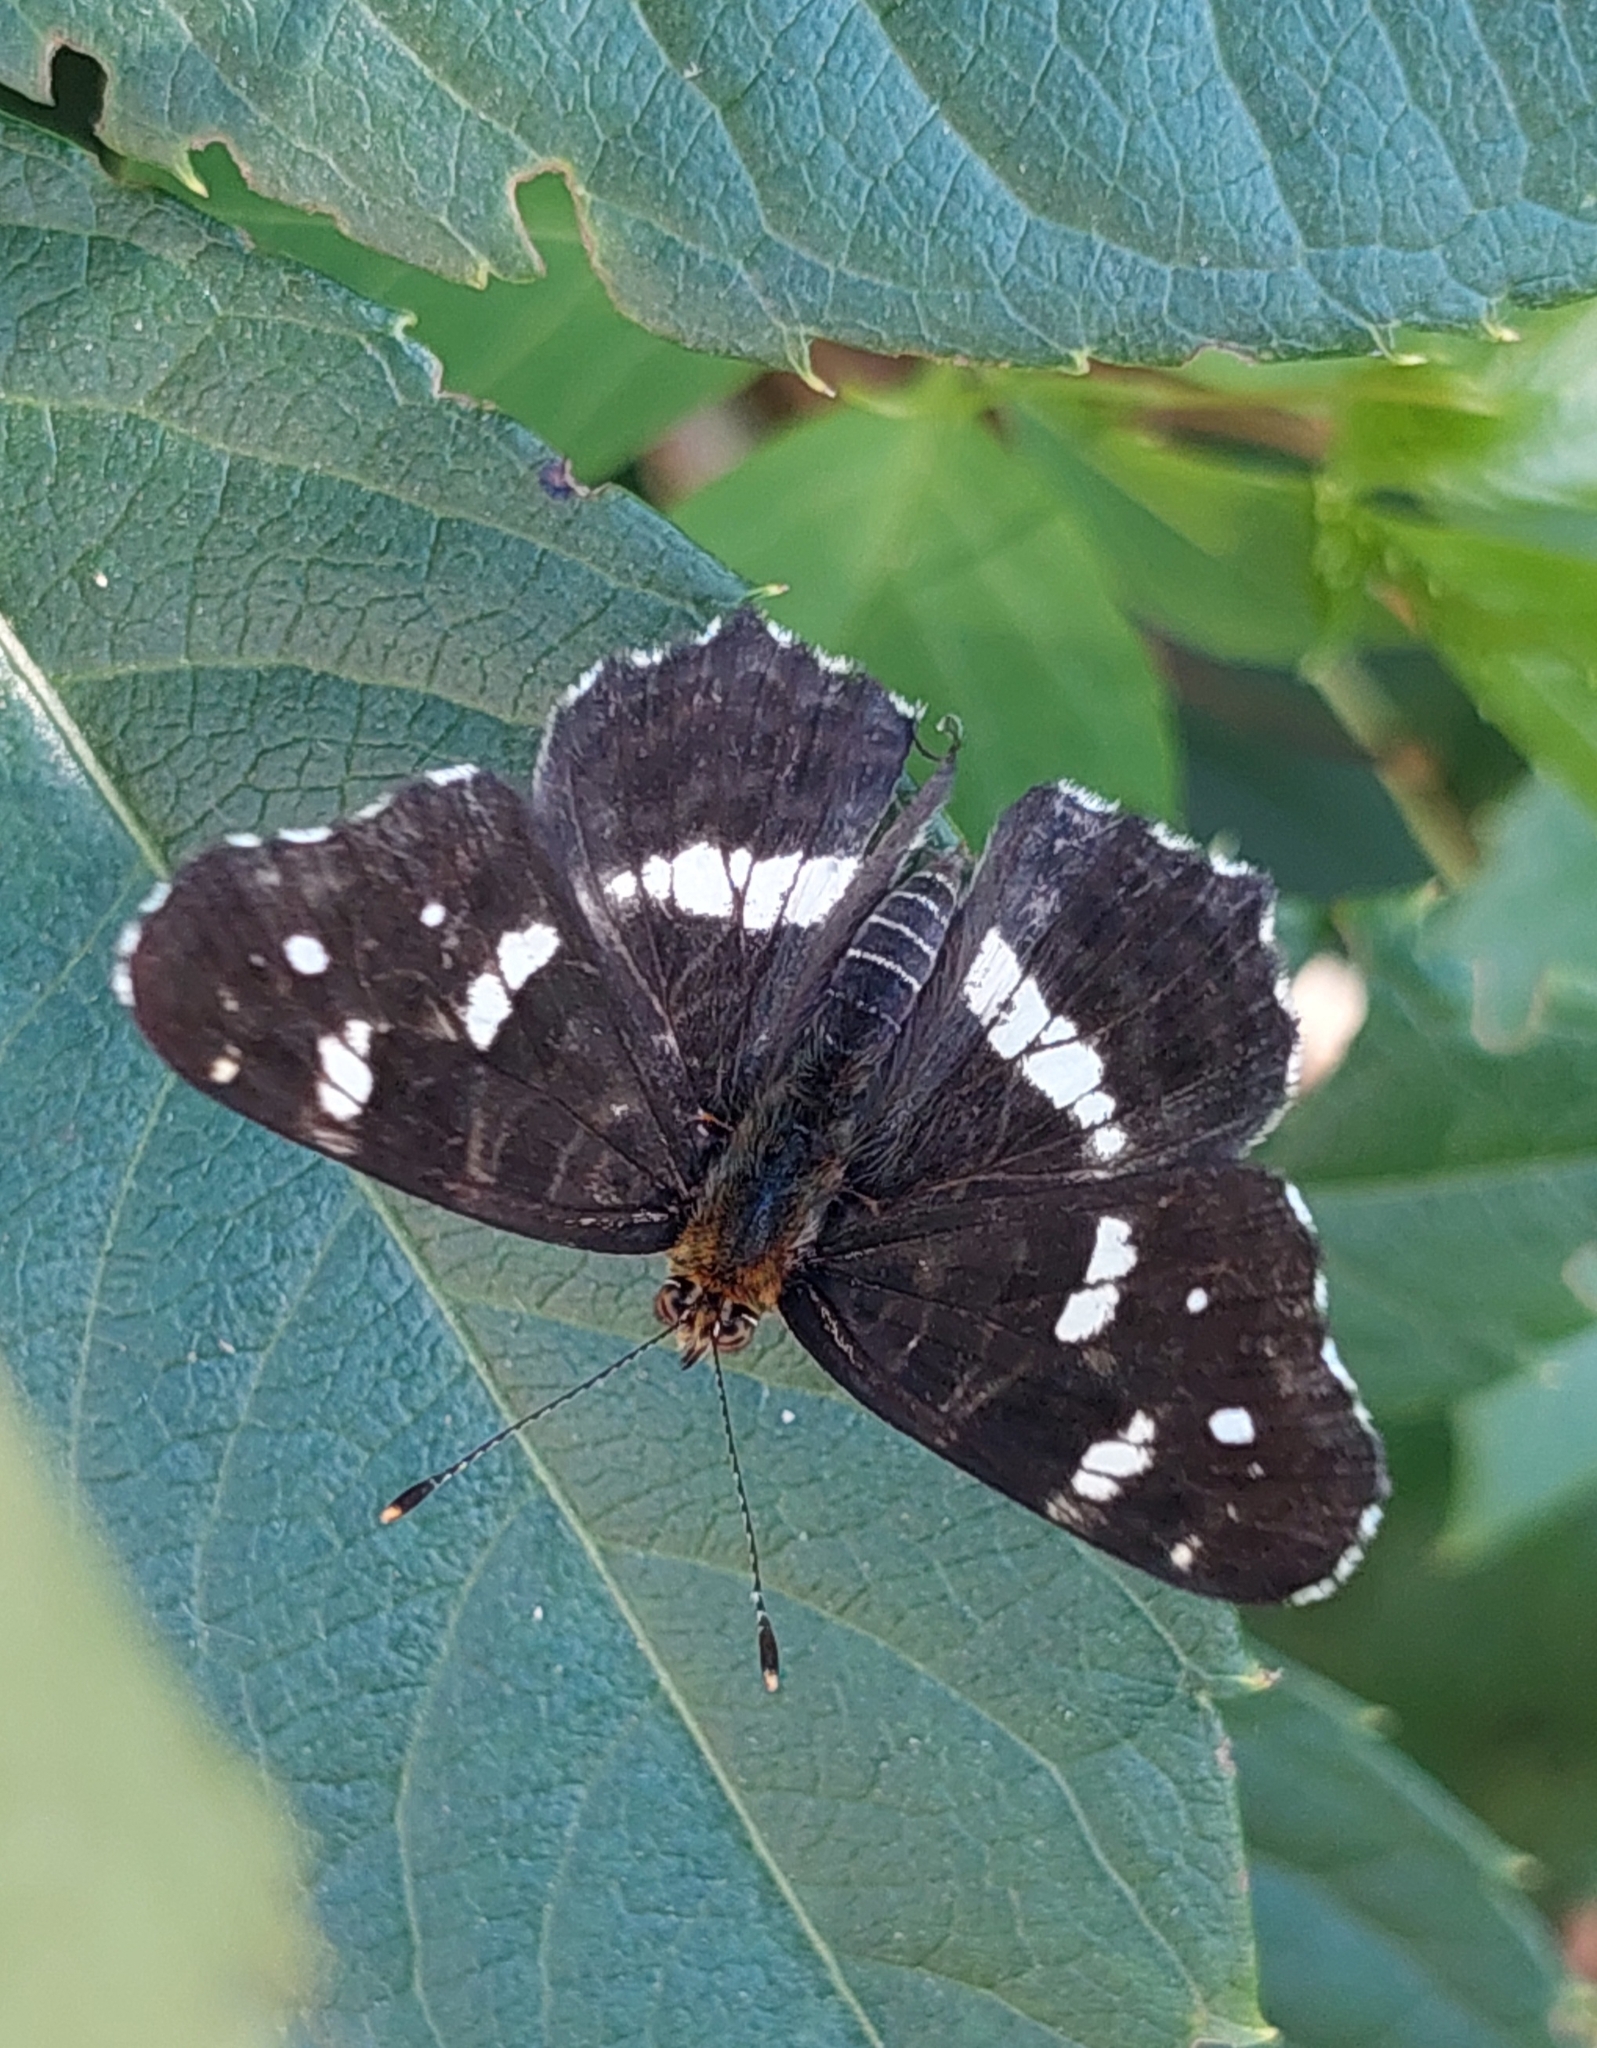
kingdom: Animalia
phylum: Arthropoda
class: Insecta
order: Lepidoptera
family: Nymphalidae
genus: Araschnia
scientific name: Araschnia levana
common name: Map butterfly
